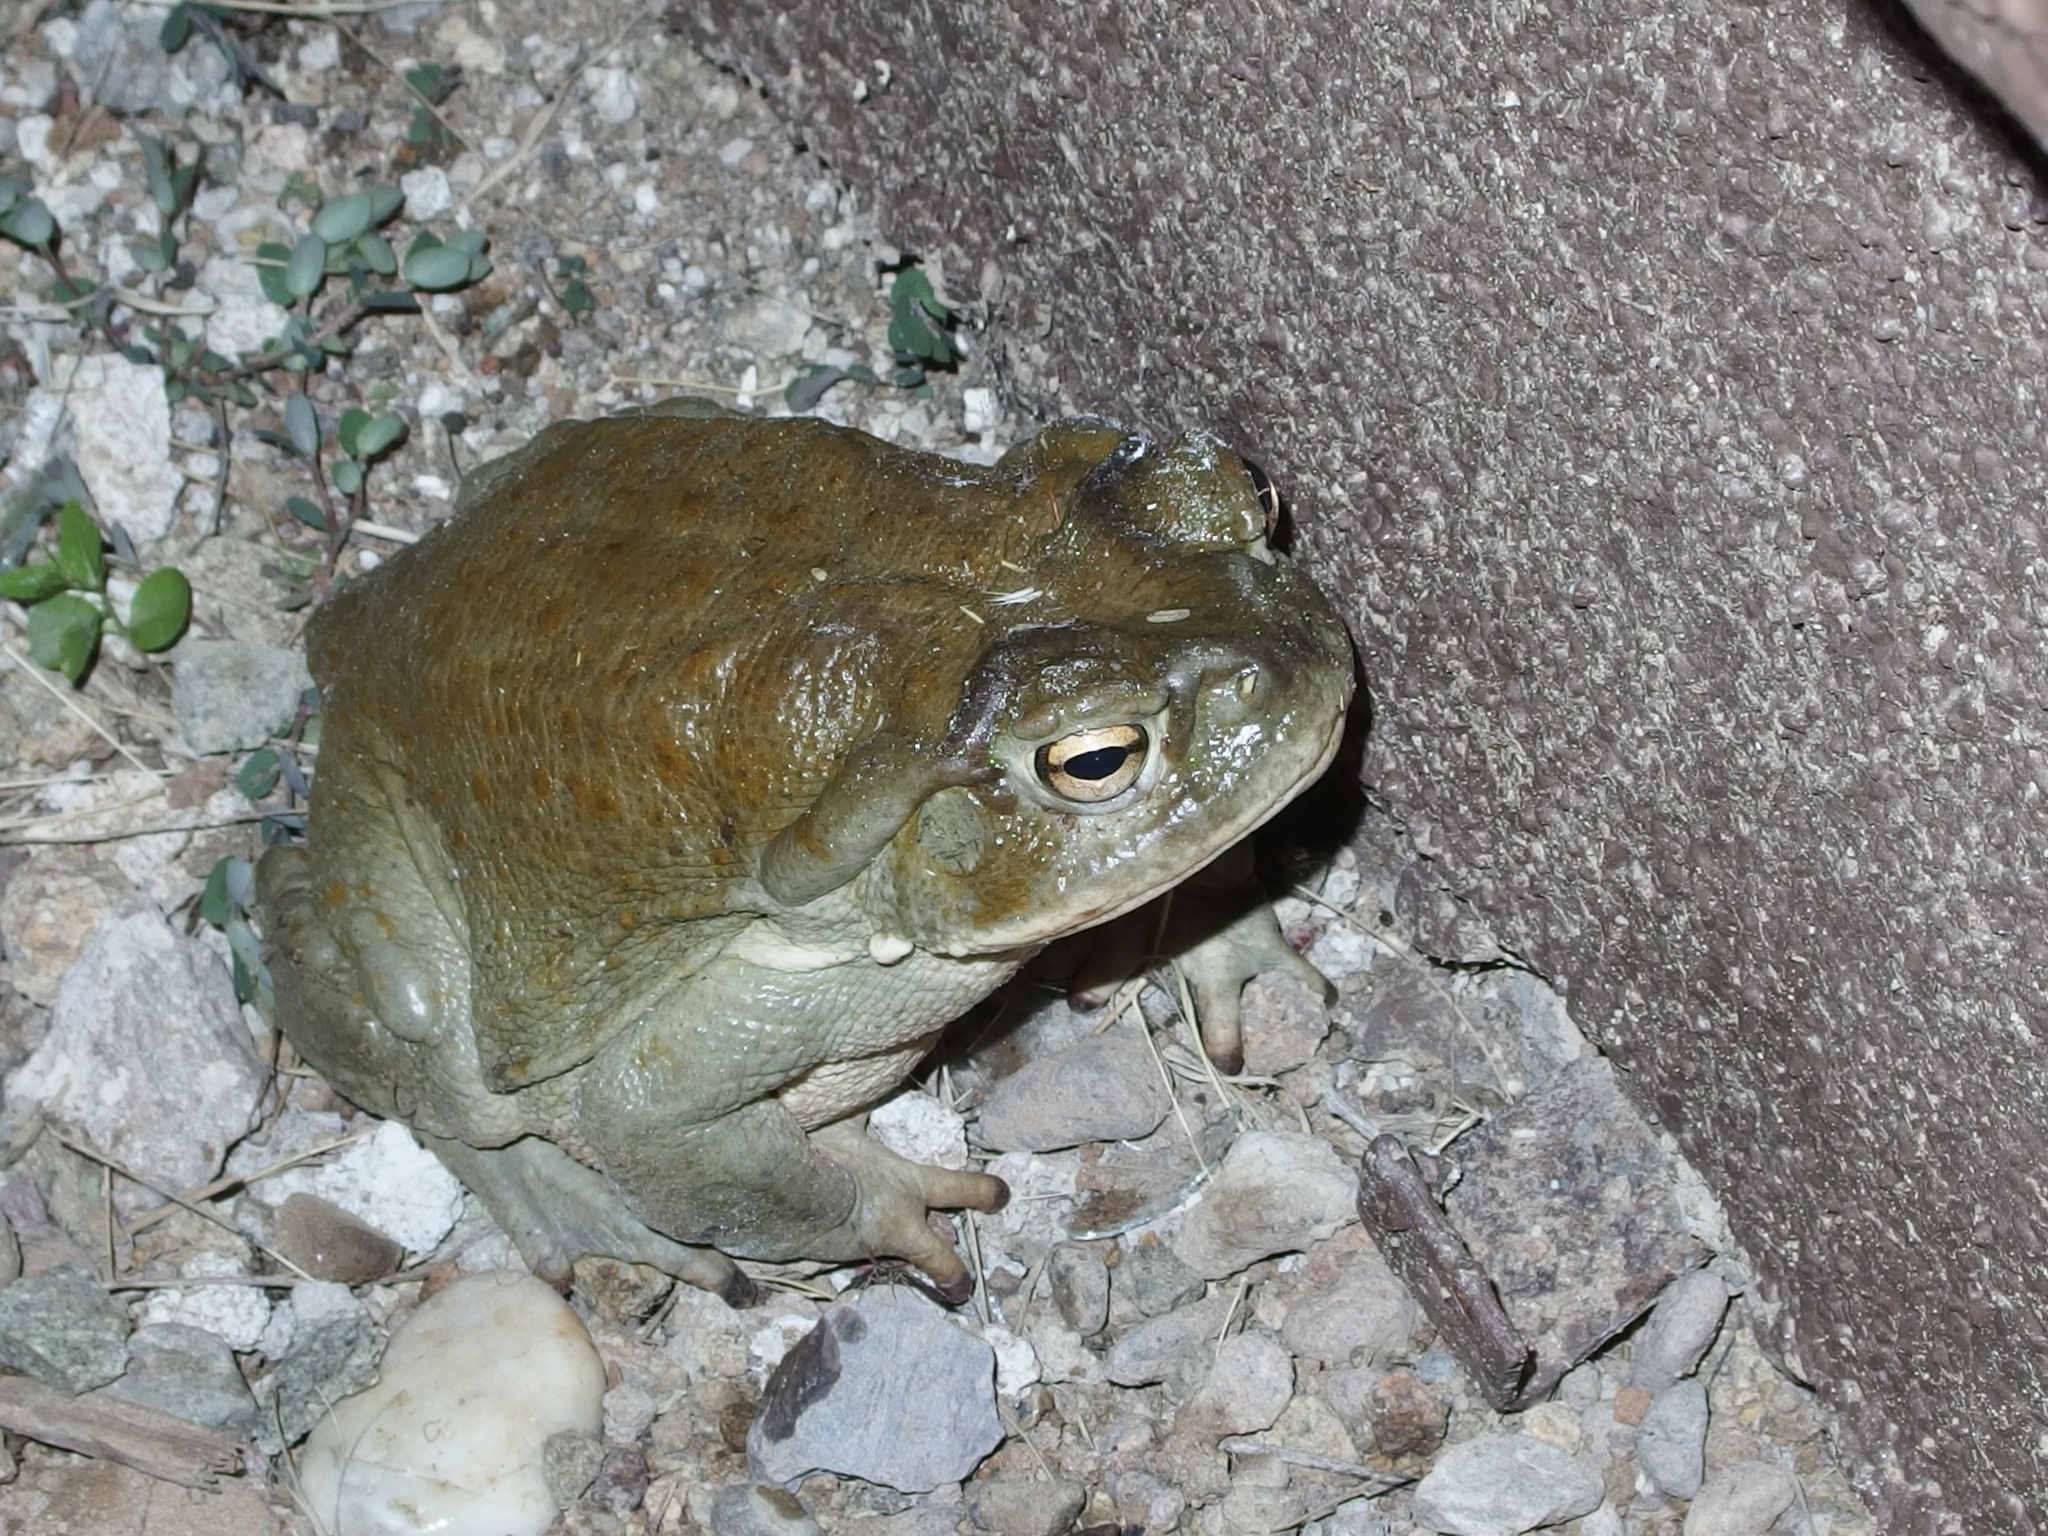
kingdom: Animalia
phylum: Chordata
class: Amphibia
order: Anura
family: Bufonidae
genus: Incilius
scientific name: Incilius alvarius
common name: Sonoran desert toad
